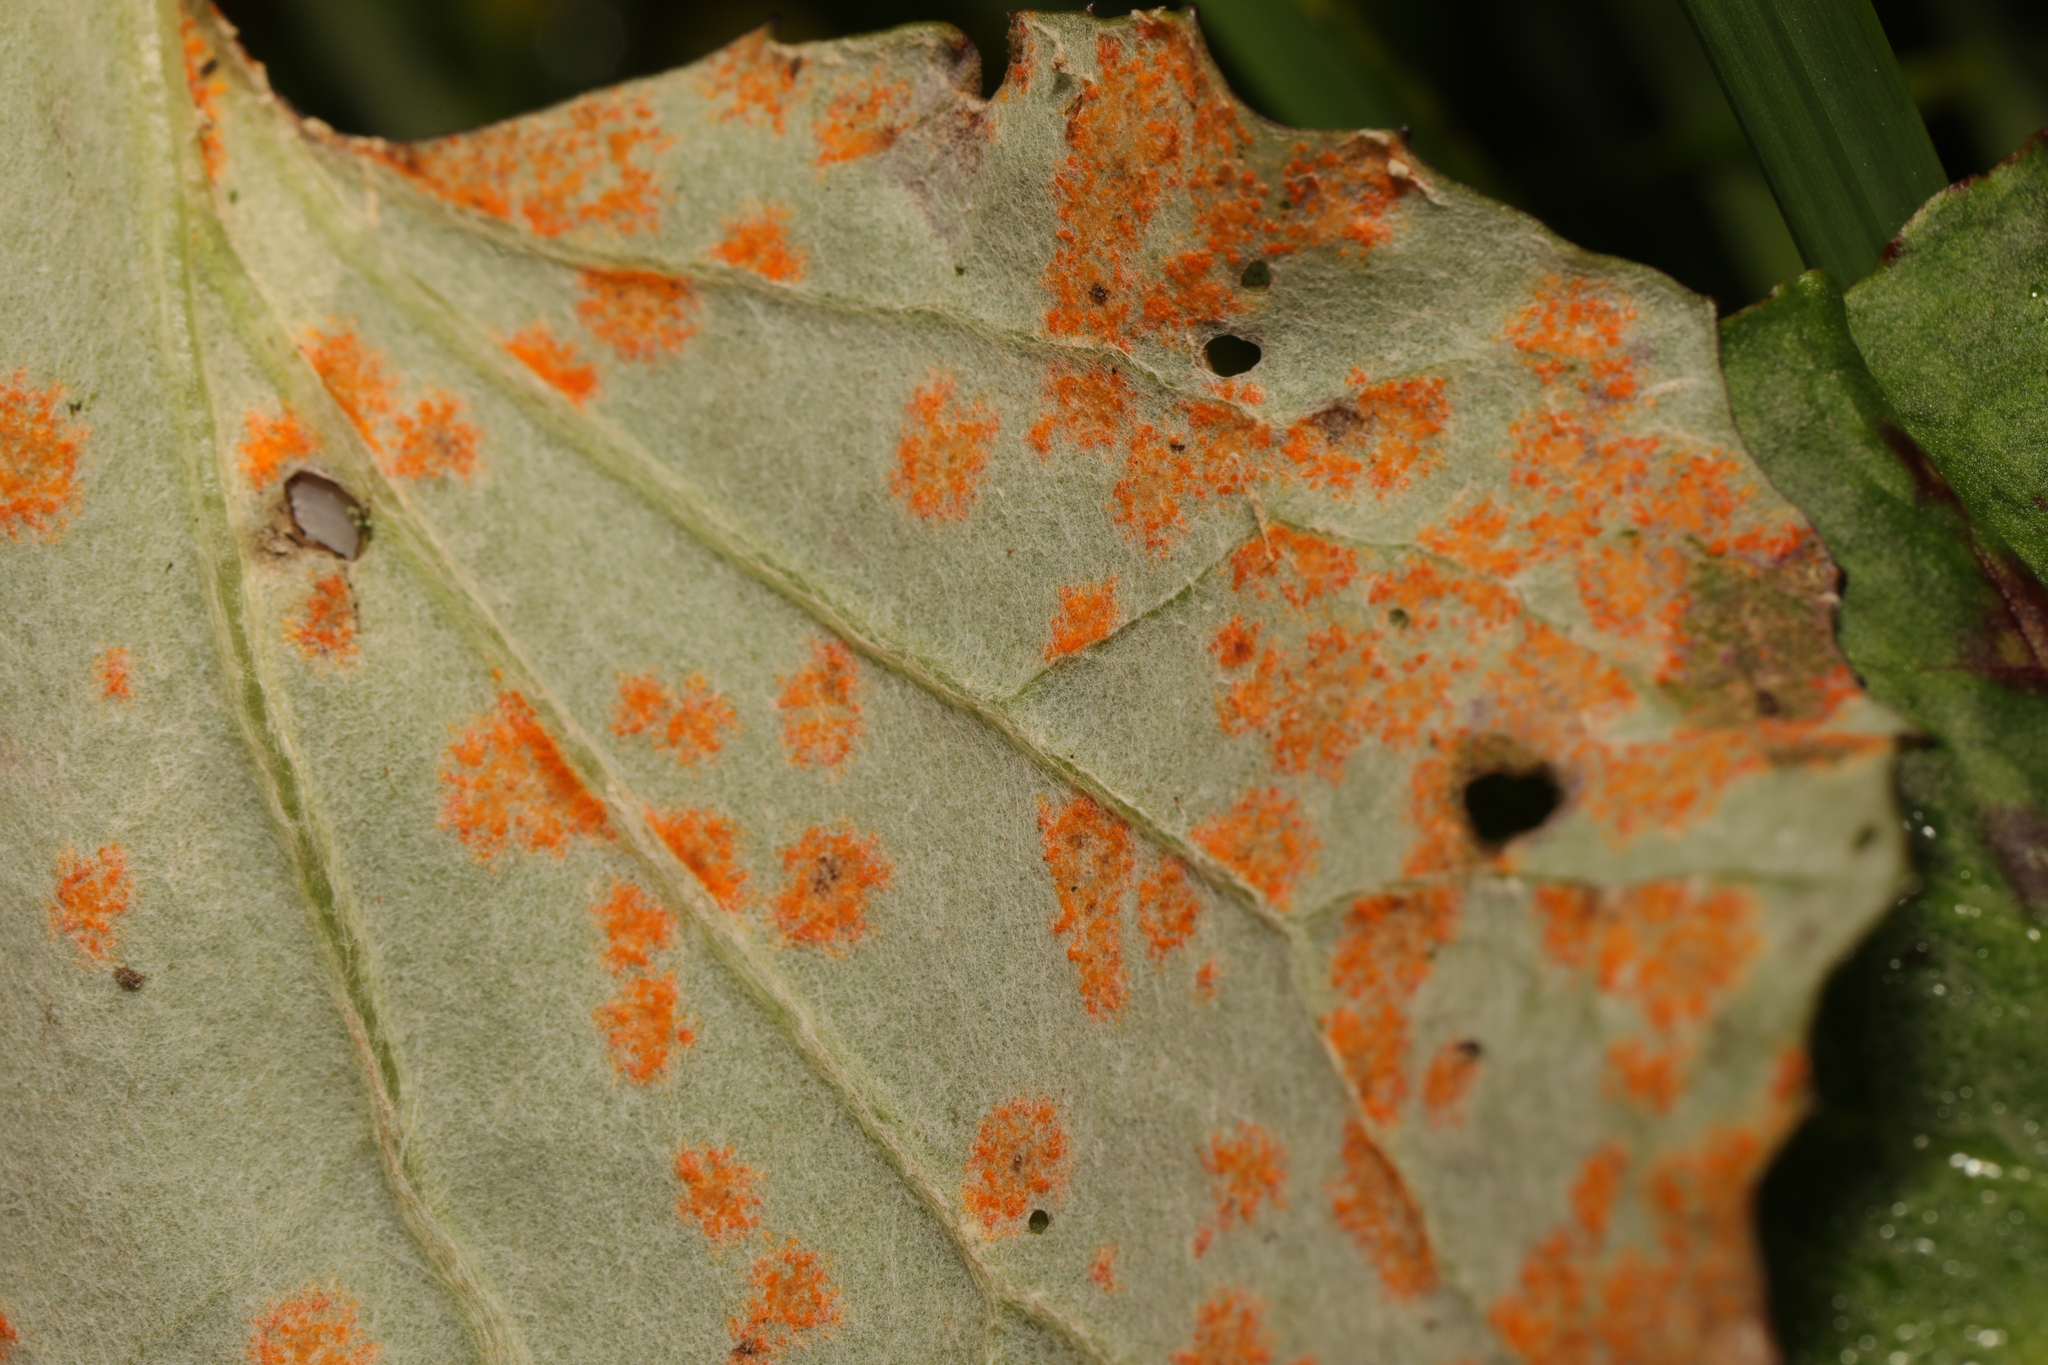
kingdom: Fungi
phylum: Basidiomycota
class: Pucciniomycetes
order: Pucciniales
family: Coleosporiaceae
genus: Coleosporium
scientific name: Coleosporium tussilaginis
